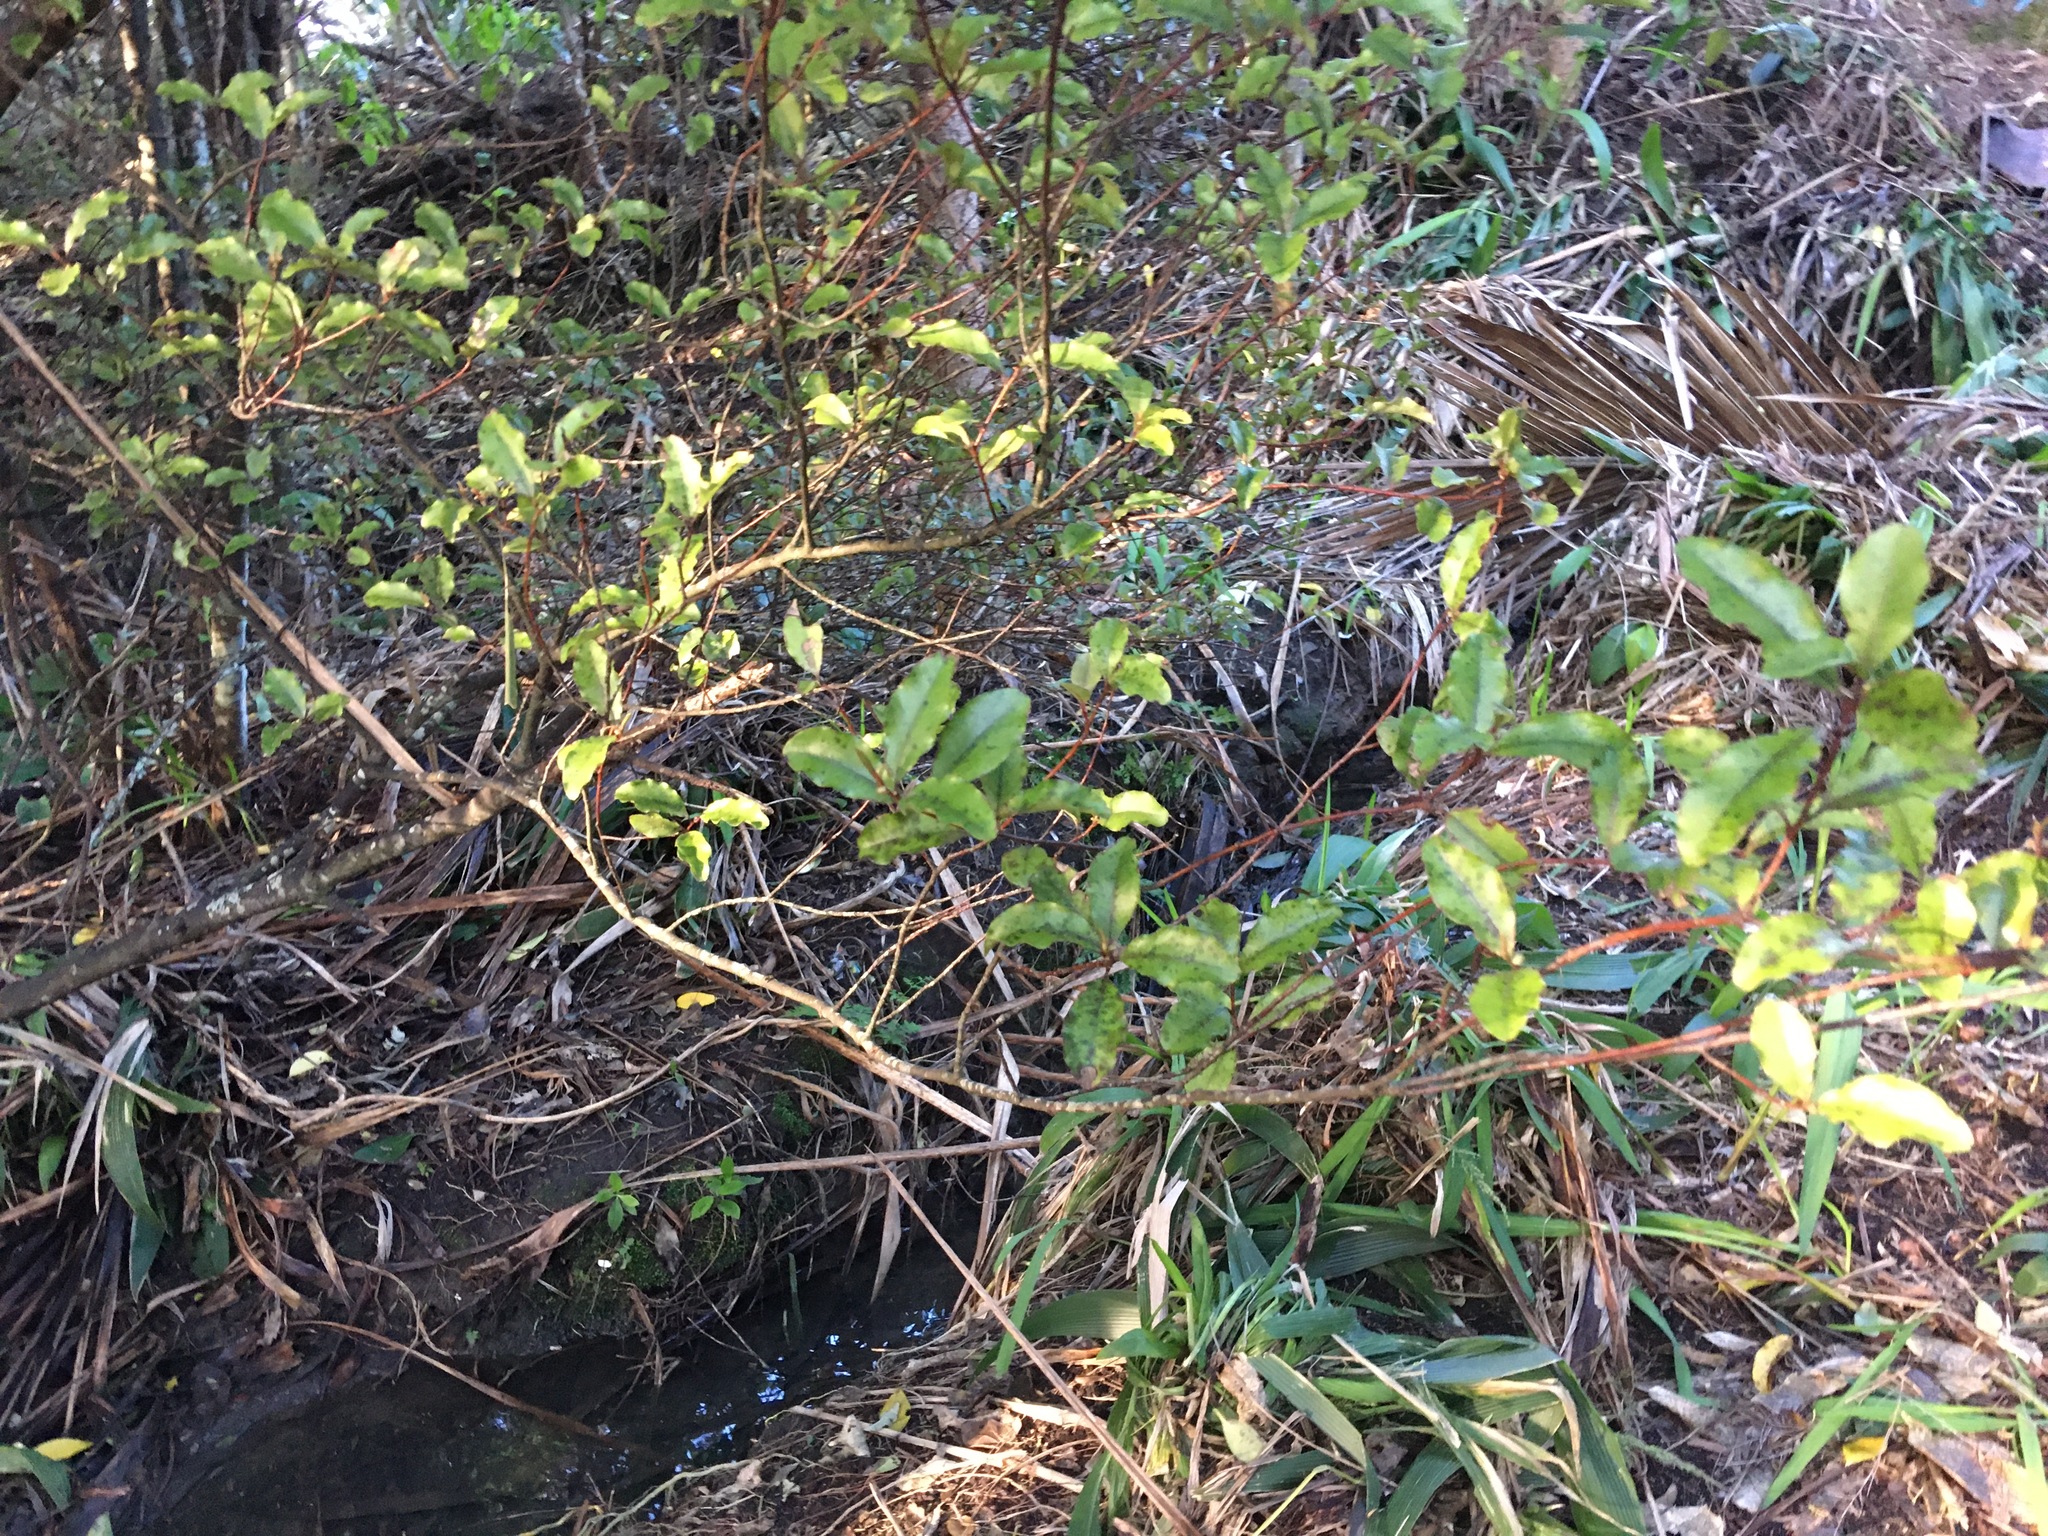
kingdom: Plantae
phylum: Tracheophyta
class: Magnoliopsida
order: Ericales
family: Primulaceae
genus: Myrsine
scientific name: Myrsine australis
